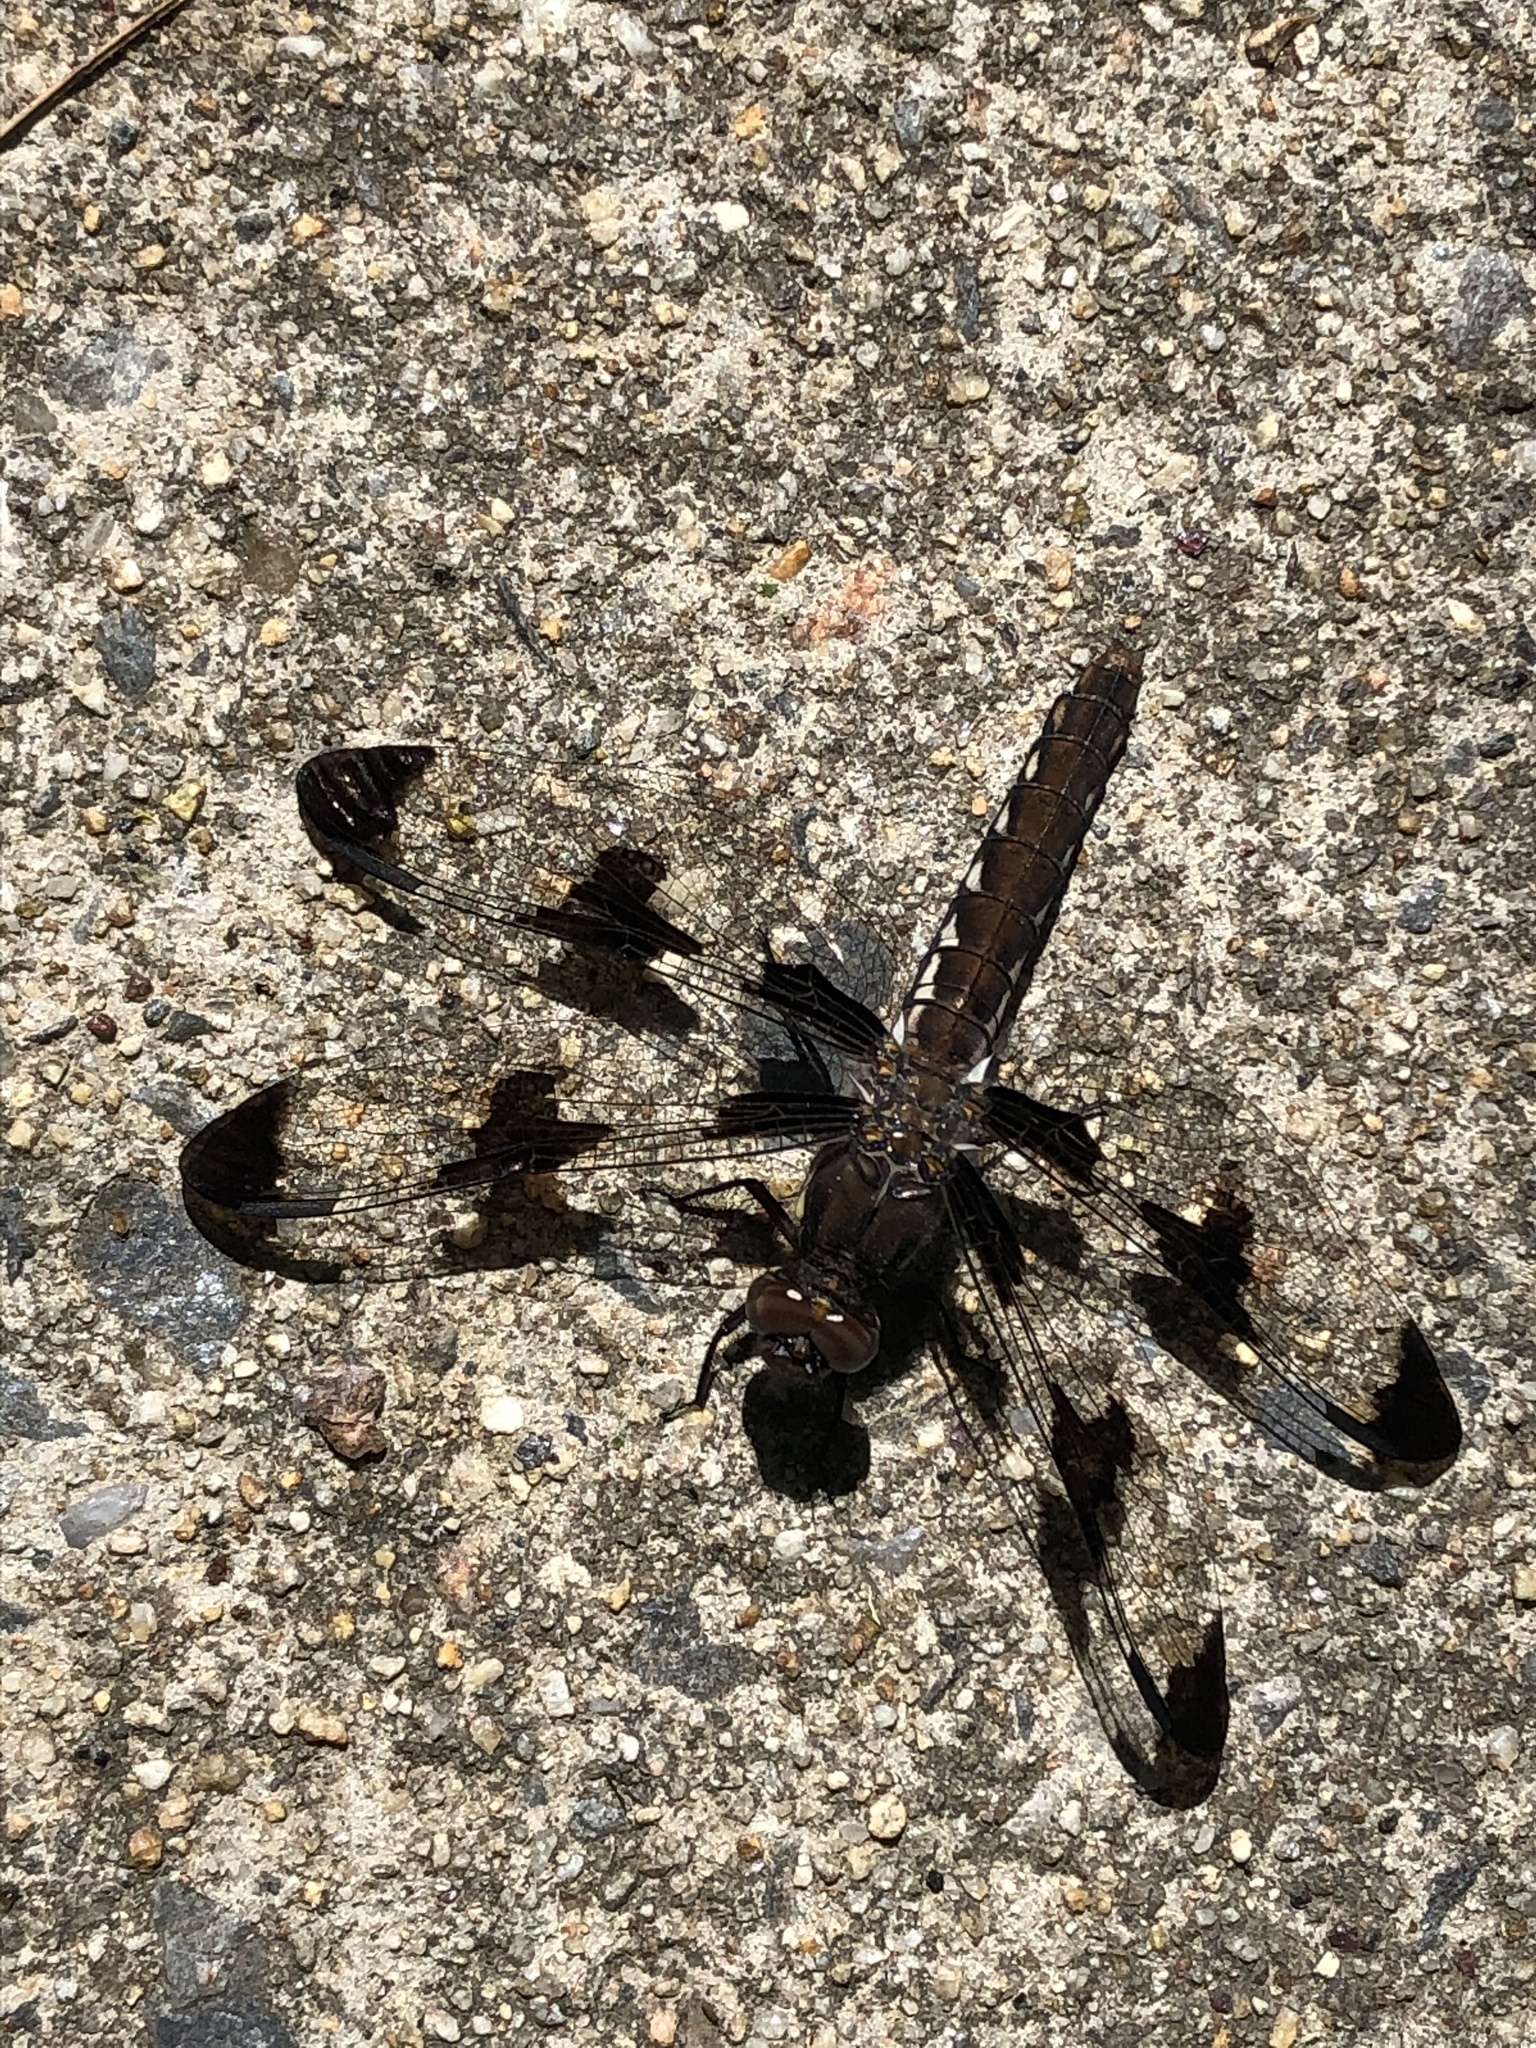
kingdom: Animalia
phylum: Arthropoda
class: Insecta
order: Odonata
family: Libellulidae
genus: Plathemis
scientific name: Plathemis lydia
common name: Common whitetail
